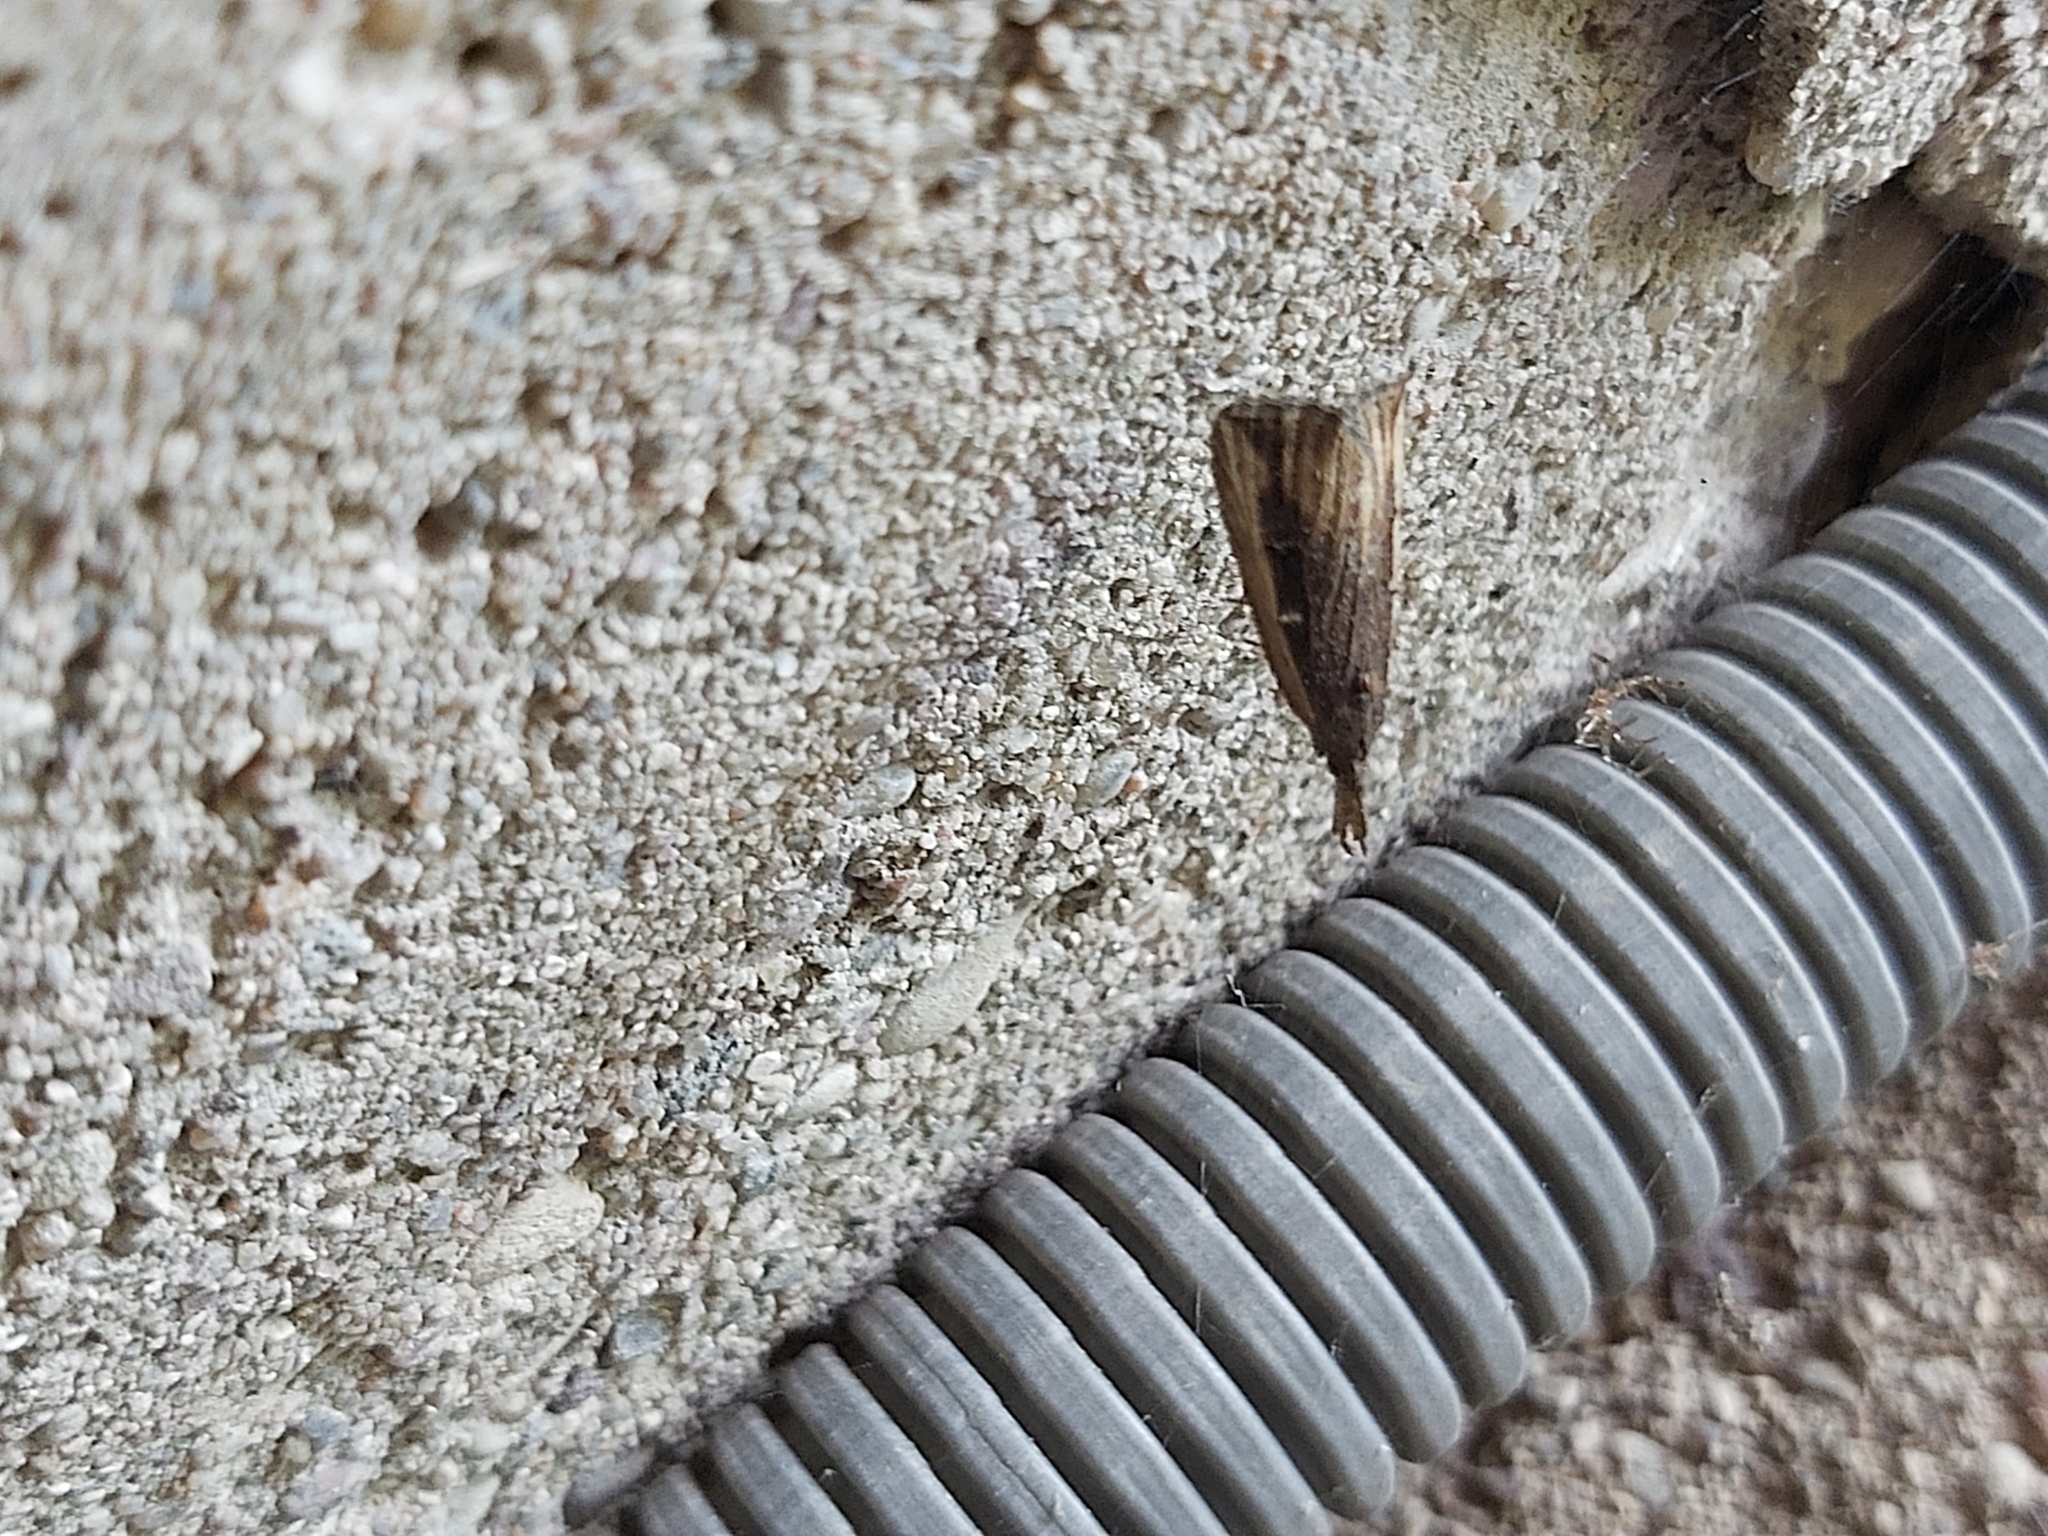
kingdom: Animalia
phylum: Arthropoda
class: Insecta
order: Lepidoptera
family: Erebidae
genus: Hypena
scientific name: Hypena rostralis
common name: Buttoned snout
